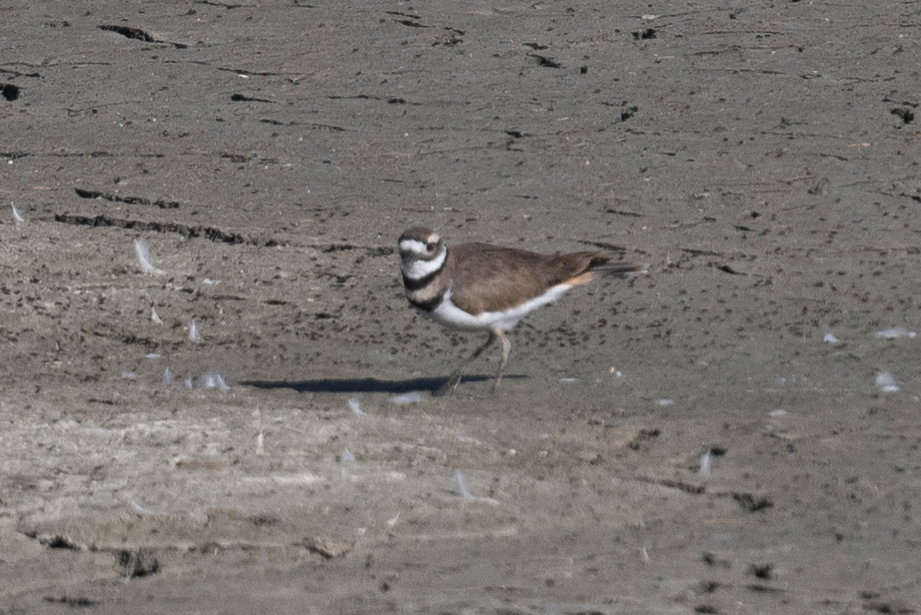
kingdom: Animalia
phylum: Chordata
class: Aves
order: Charadriiformes
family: Charadriidae
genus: Charadrius
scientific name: Charadrius vociferus
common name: Killdeer
